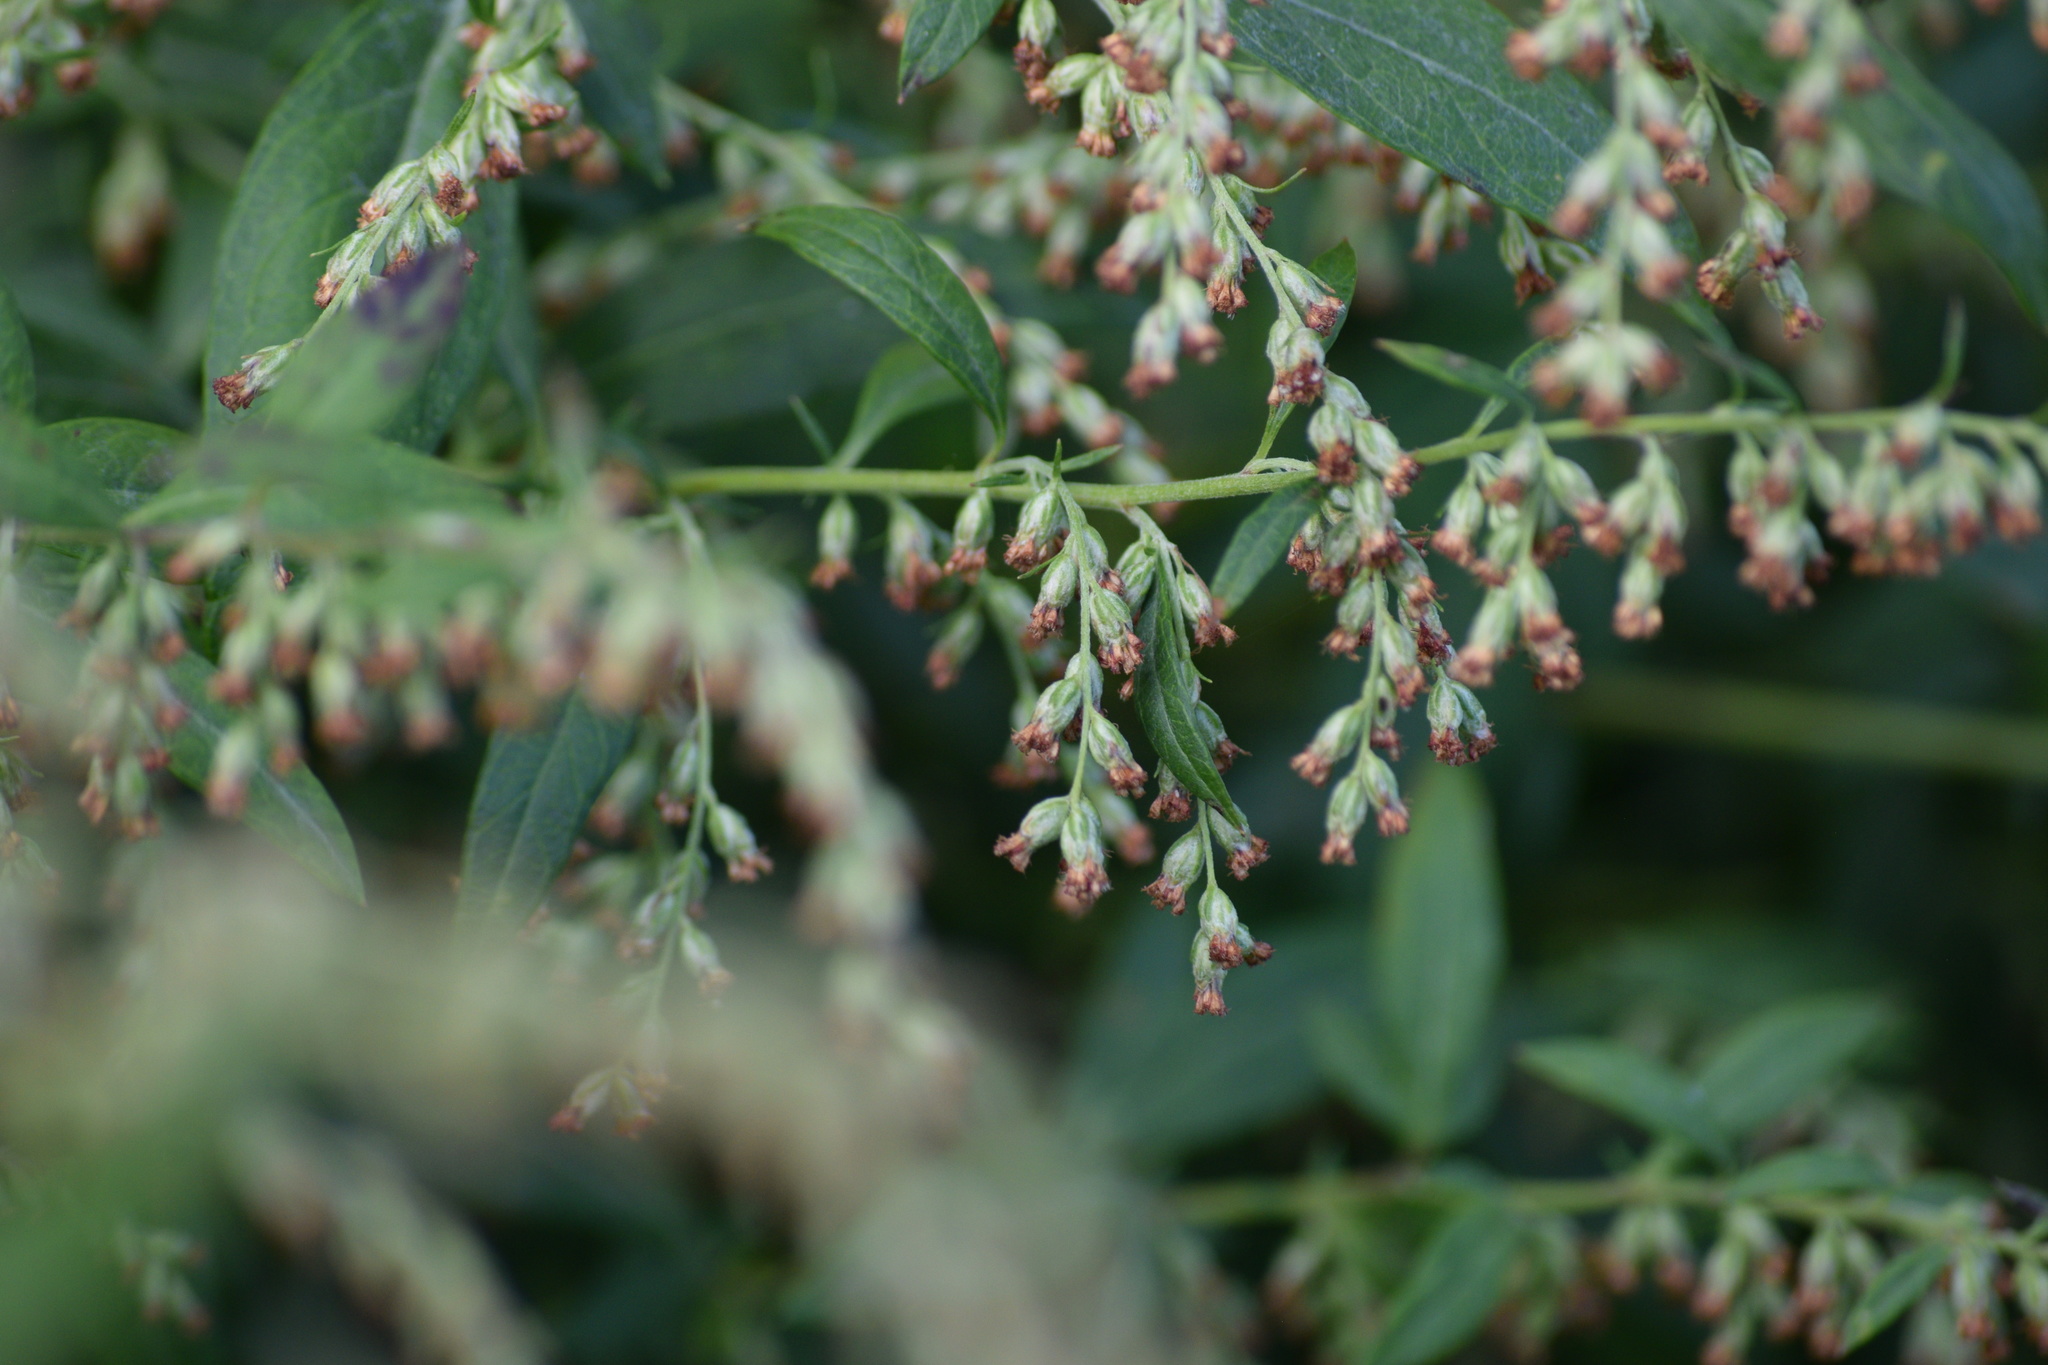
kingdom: Plantae
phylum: Tracheophyta
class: Magnoliopsida
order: Asterales
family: Asteraceae
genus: Artemisia
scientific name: Artemisia vulgaris
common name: Mugwort
